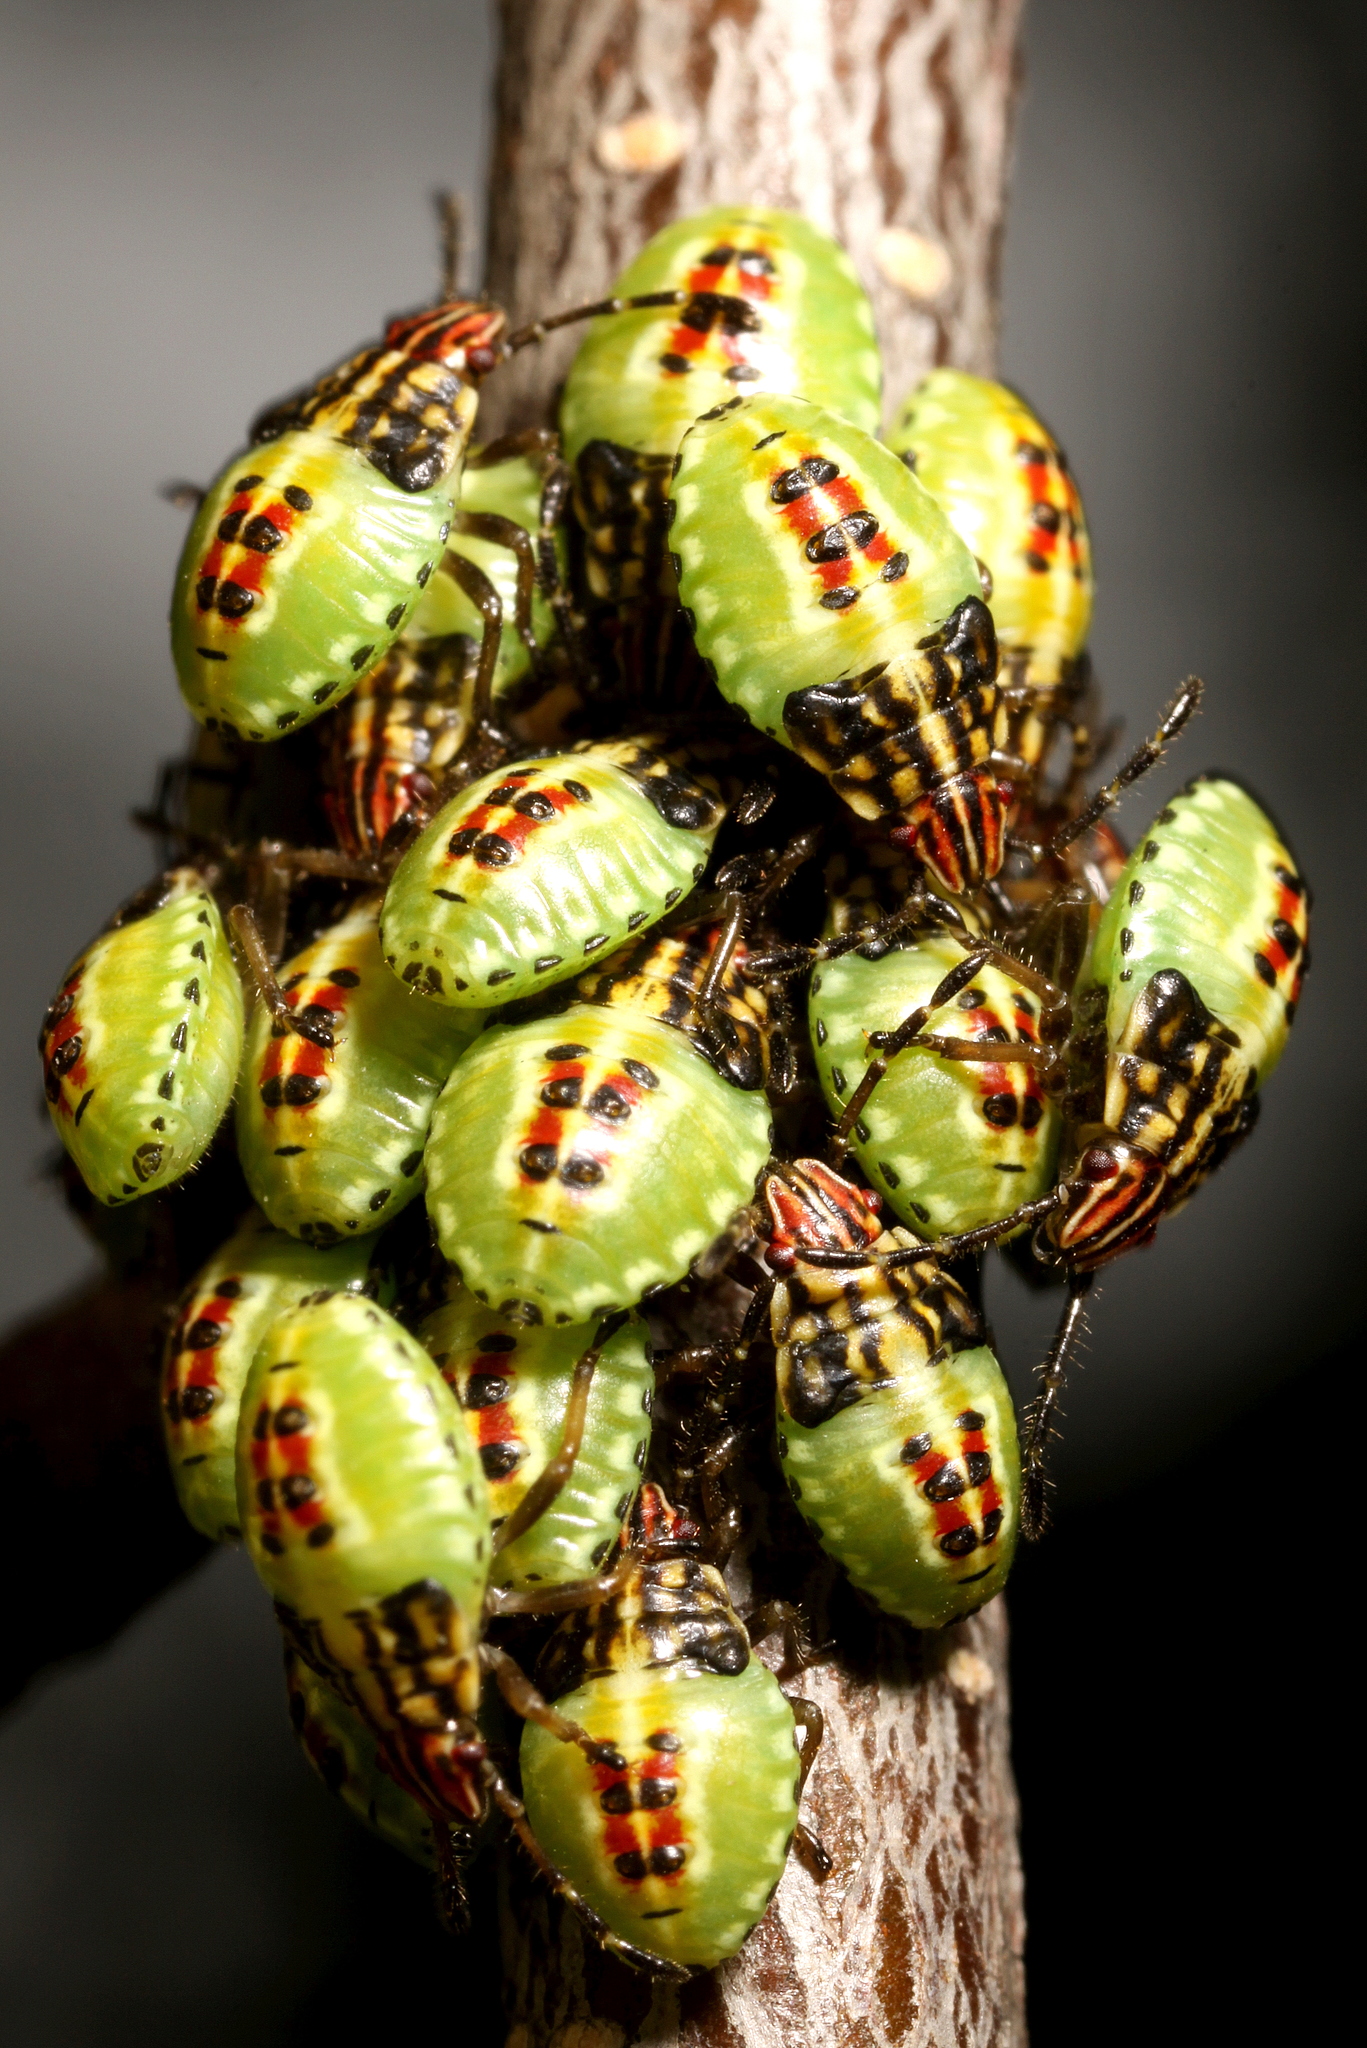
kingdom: Animalia
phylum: Arthropoda
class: Insecta
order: Hemiptera
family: Acanthosomatidae
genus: Elasmucha
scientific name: Elasmucha grisea
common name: Parent bug
